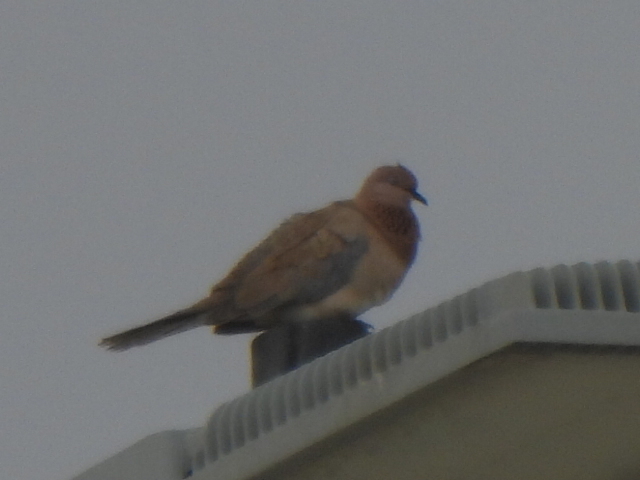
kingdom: Animalia
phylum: Chordata
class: Aves
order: Columbiformes
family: Columbidae
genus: Spilopelia
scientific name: Spilopelia senegalensis
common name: Laughing dove
